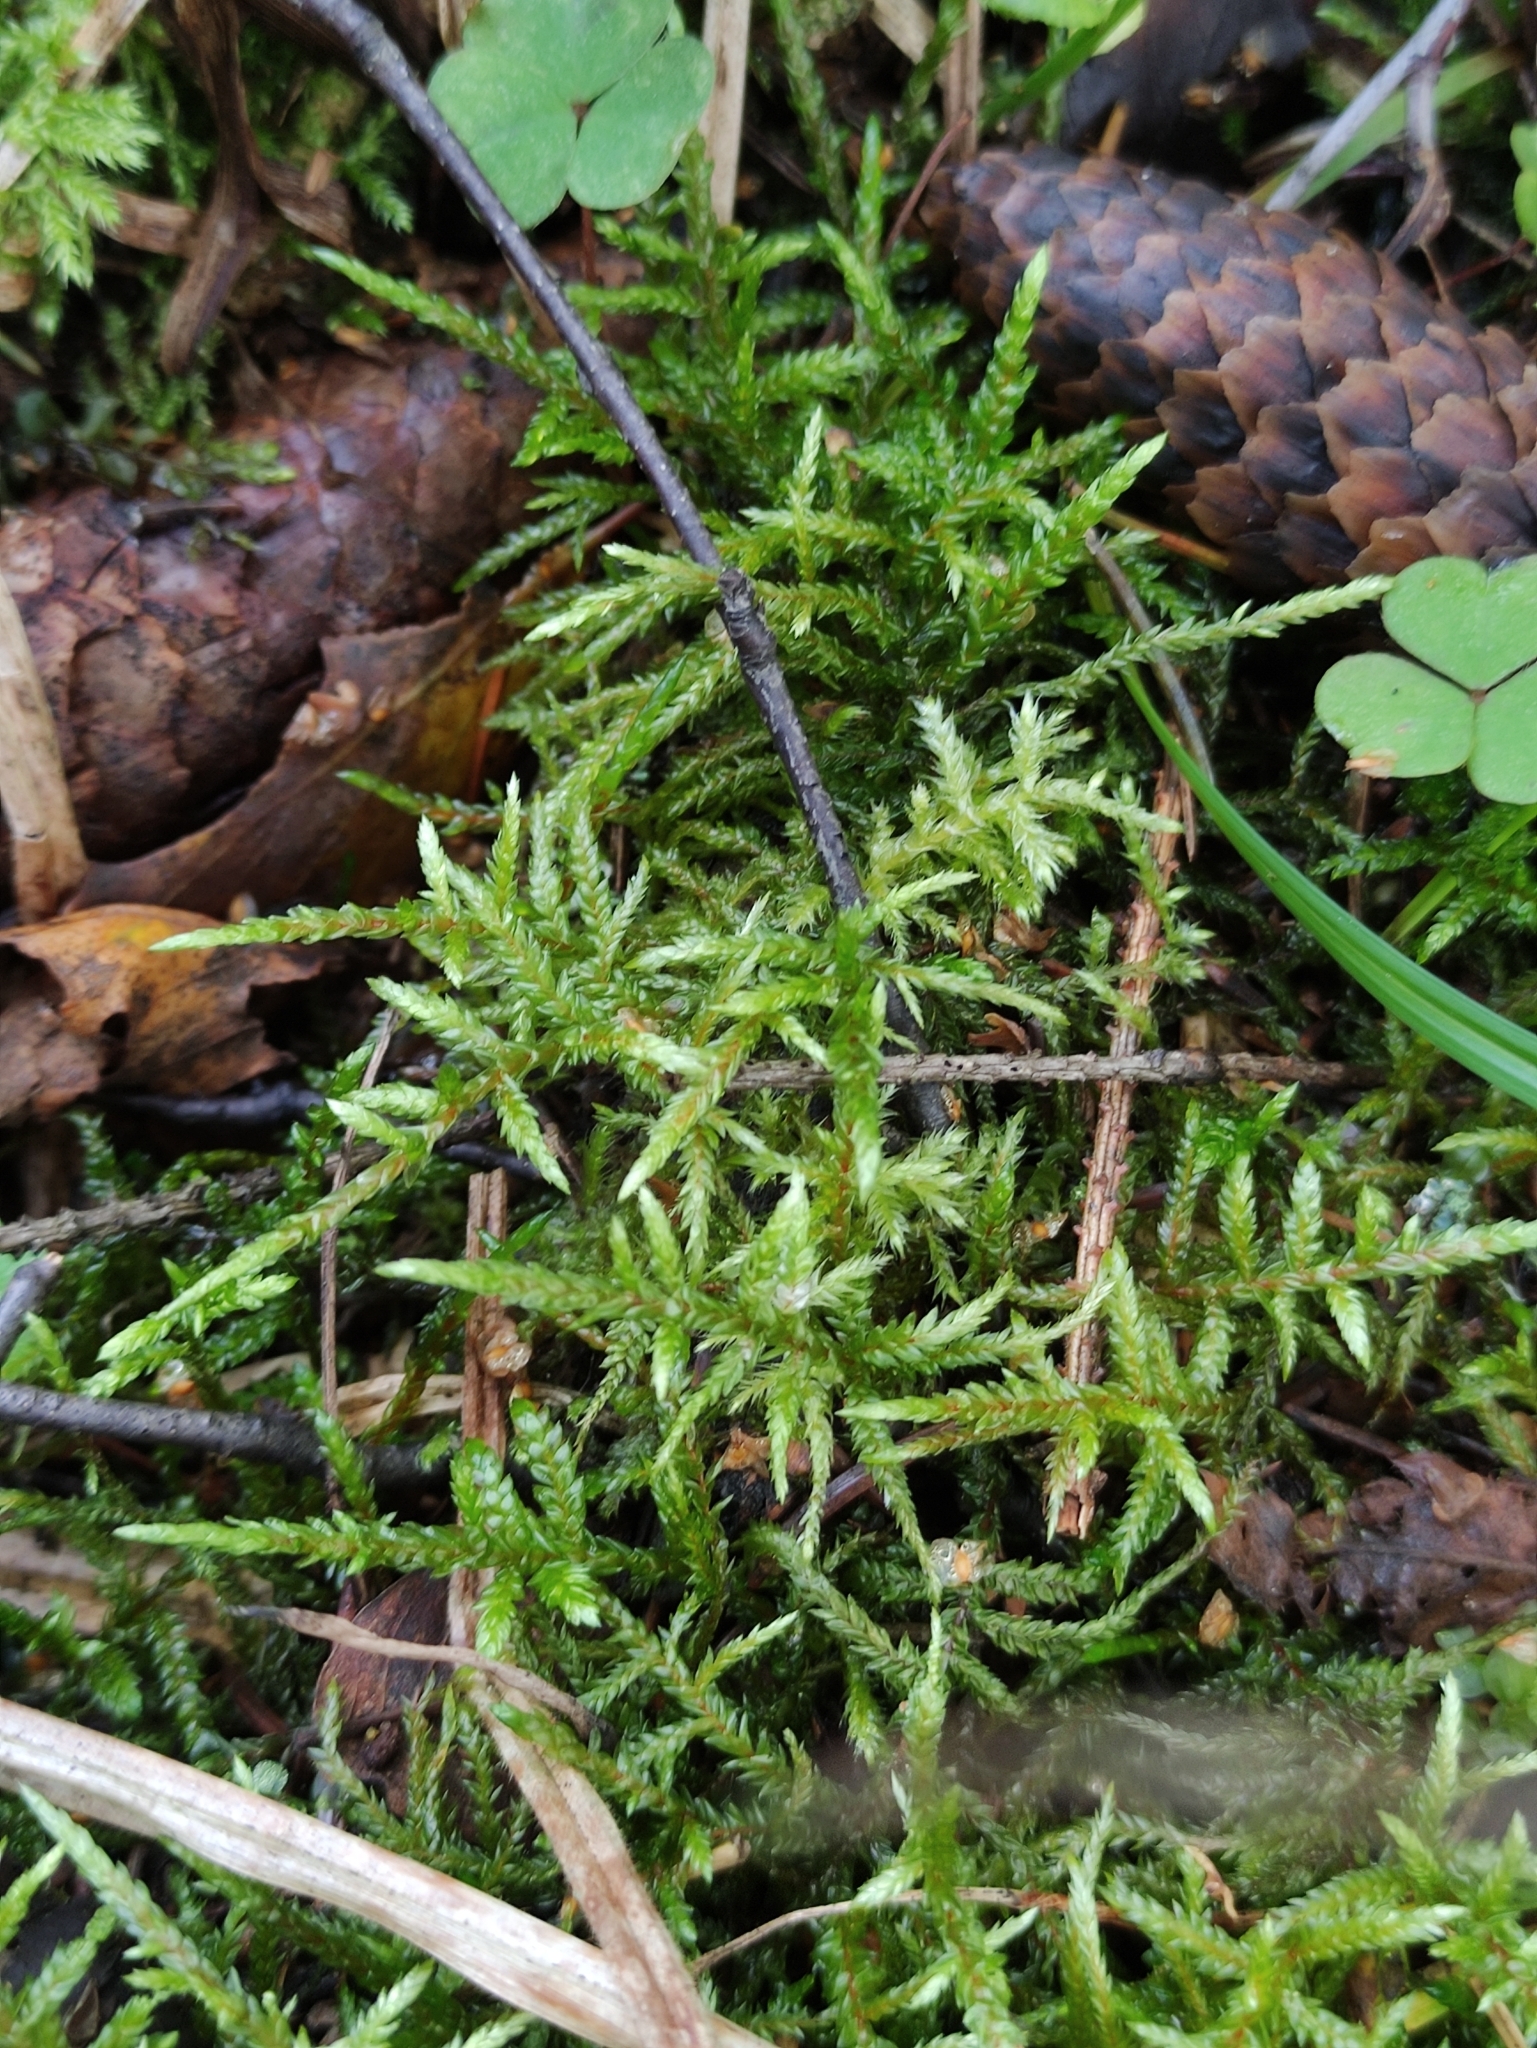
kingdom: Plantae
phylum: Bryophyta
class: Bryopsida
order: Hypnales
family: Hylocomiaceae
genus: Pleurozium
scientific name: Pleurozium schreberi
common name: Red-stemmed feather moss
